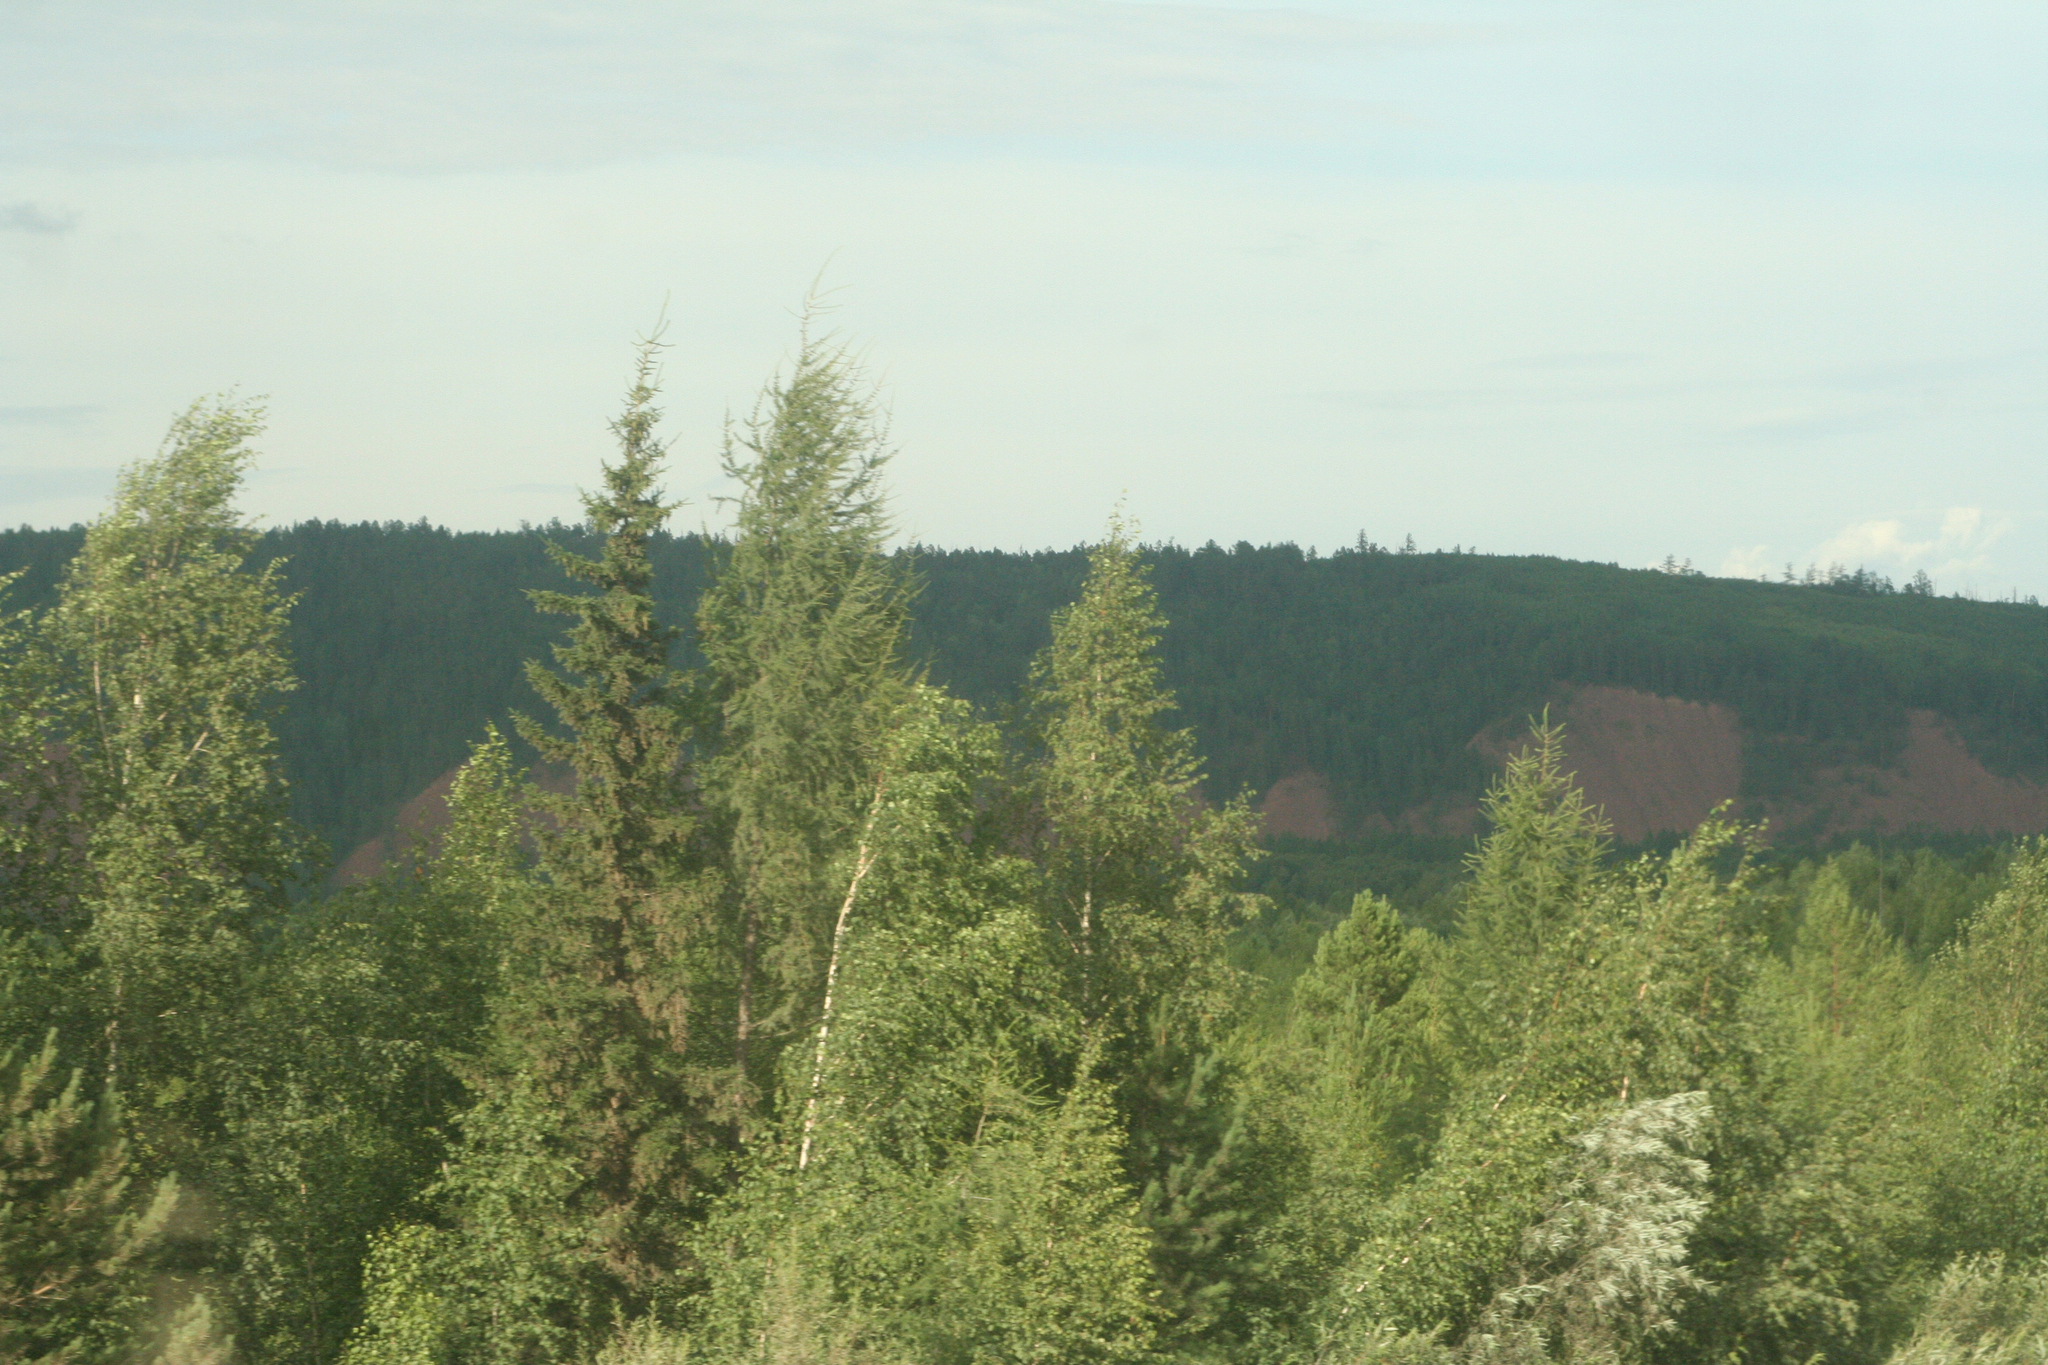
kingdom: Plantae
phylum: Tracheophyta
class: Pinopsida
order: Pinales
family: Pinaceae
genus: Picea
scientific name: Picea obovata
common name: Siberian spruce
